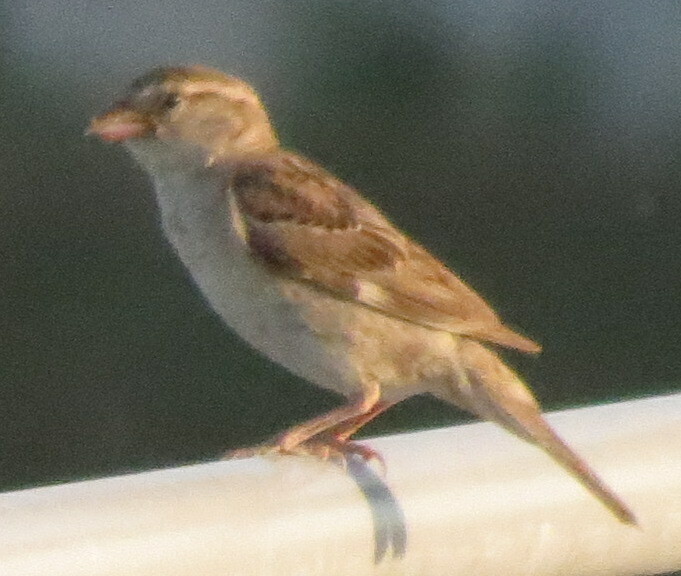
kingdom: Animalia
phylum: Chordata
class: Aves
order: Passeriformes
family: Passeridae
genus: Passer
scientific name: Passer domesticus
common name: House sparrow
